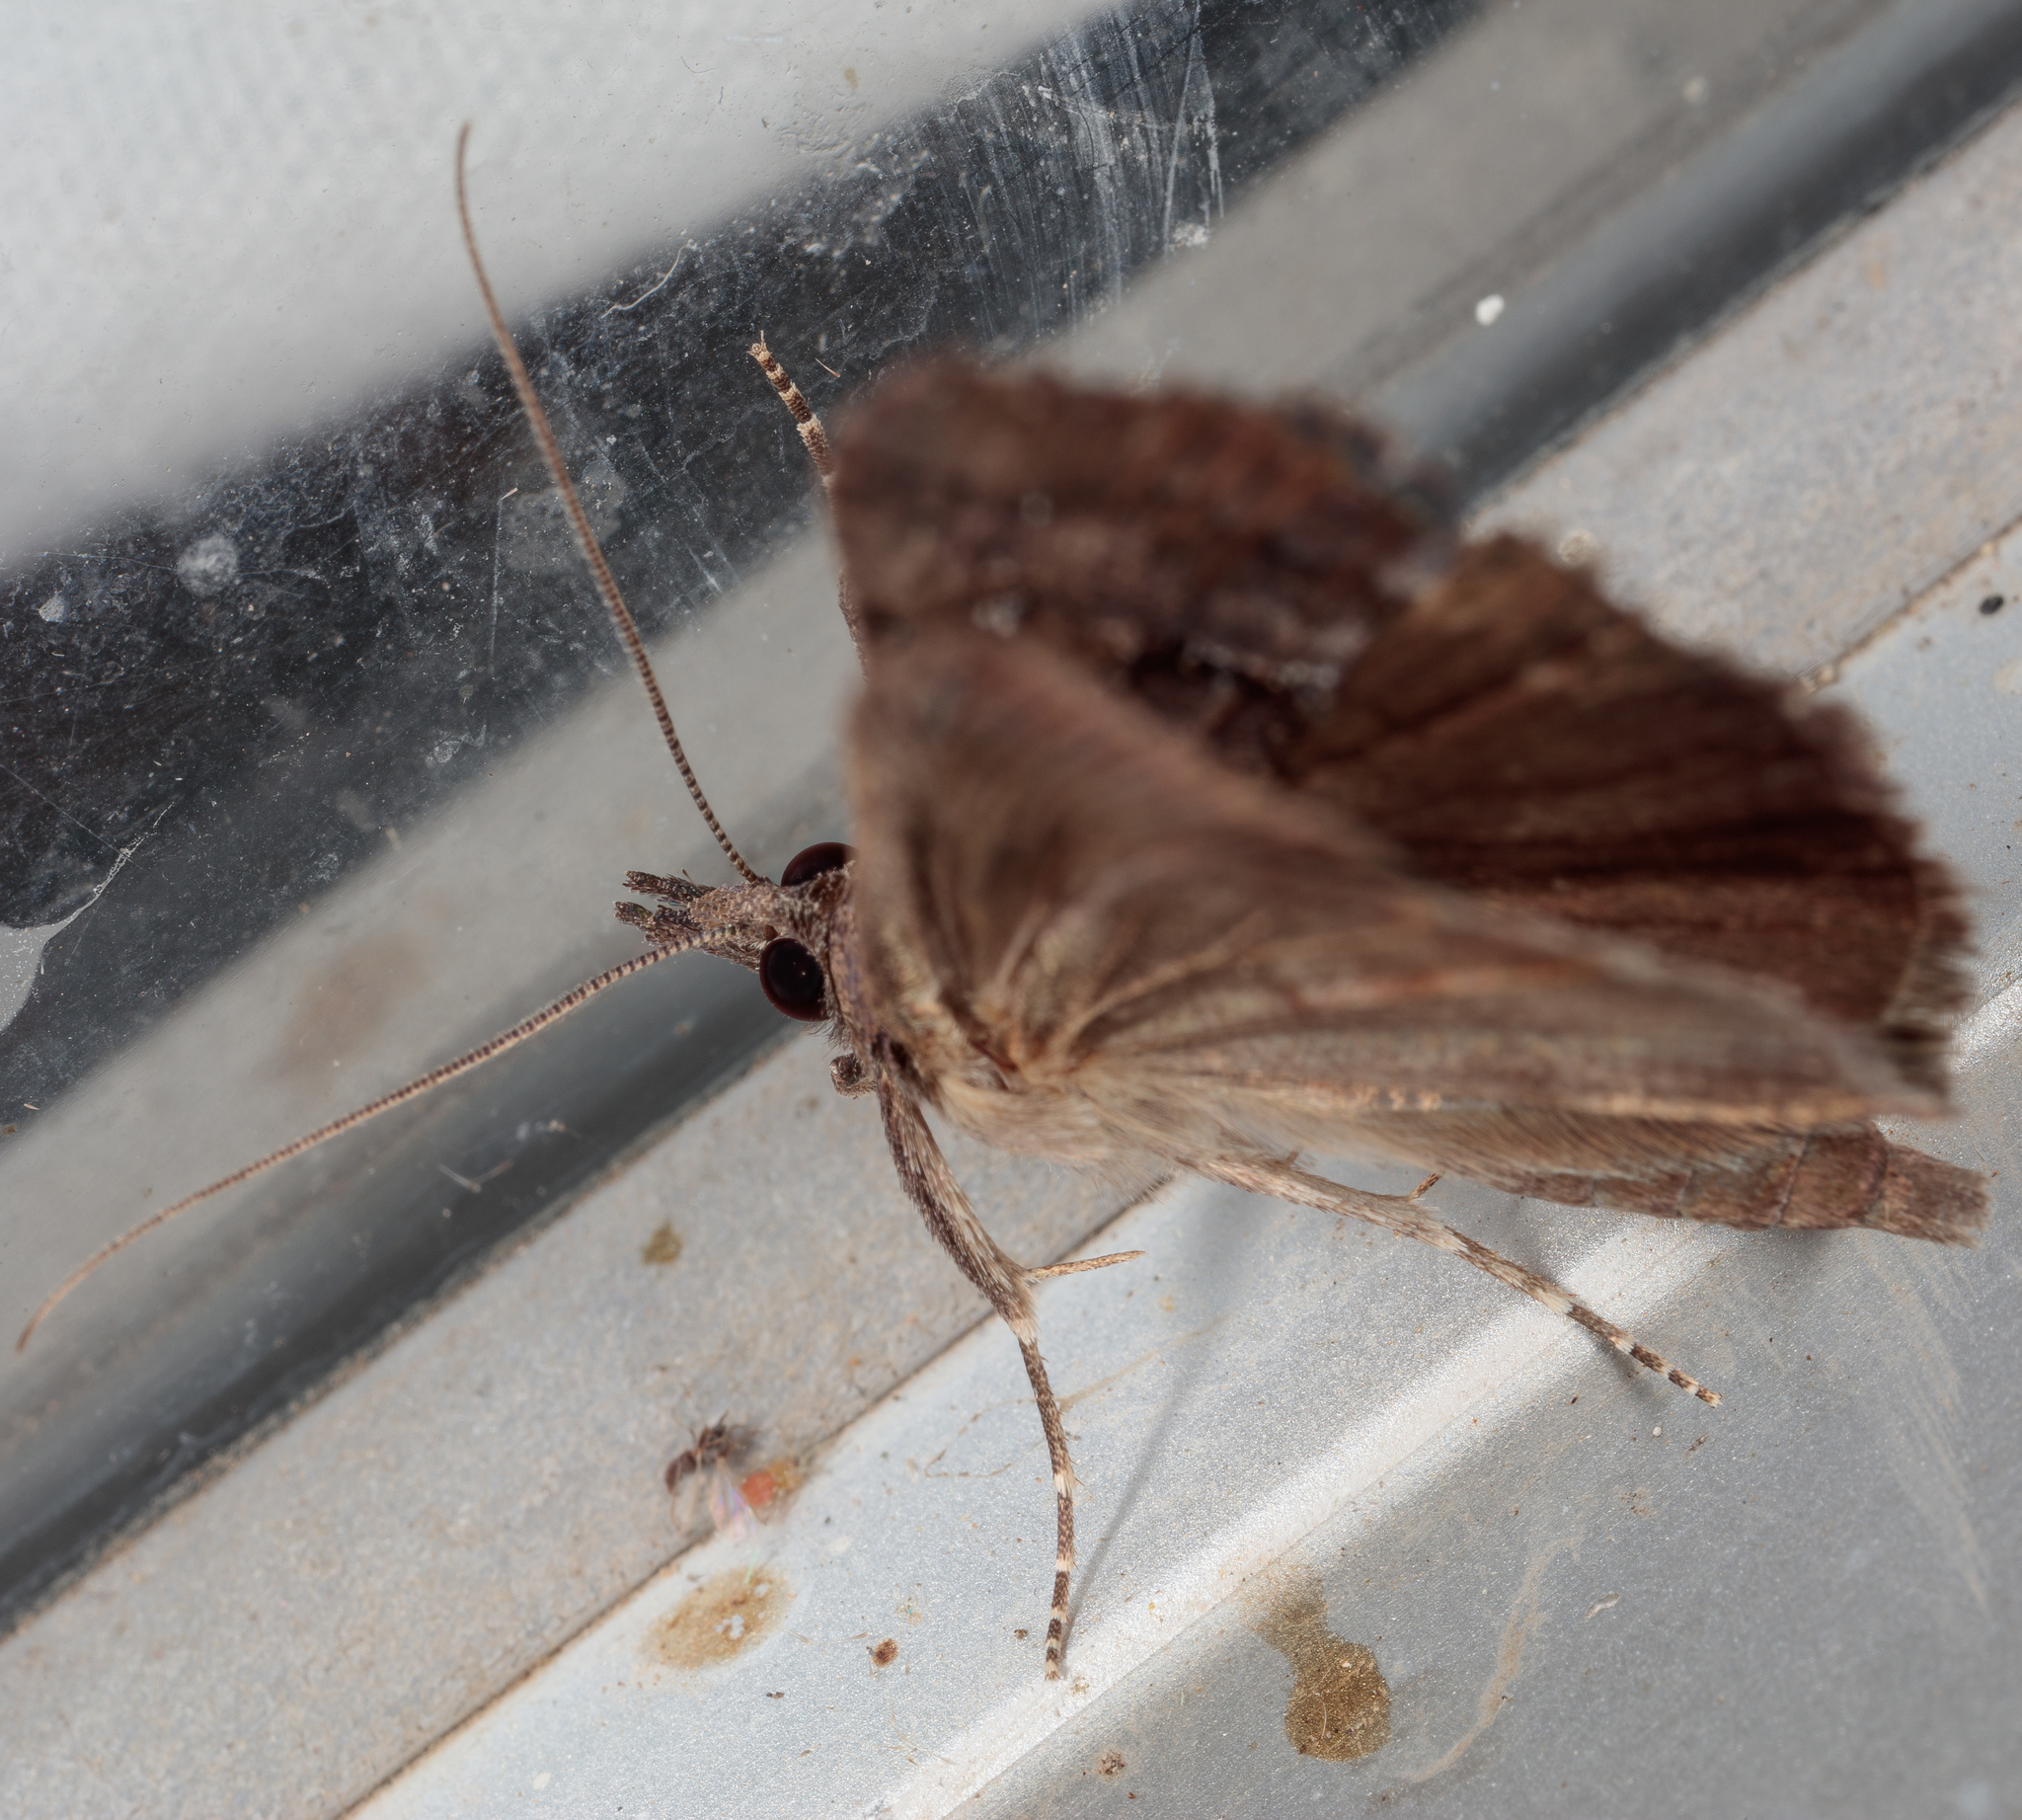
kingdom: Animalia
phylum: Arthropoda
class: Insecta
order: Lepidoptera
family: Erebidae
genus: Hypena
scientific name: Hypena scabra
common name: Green cloverworm
